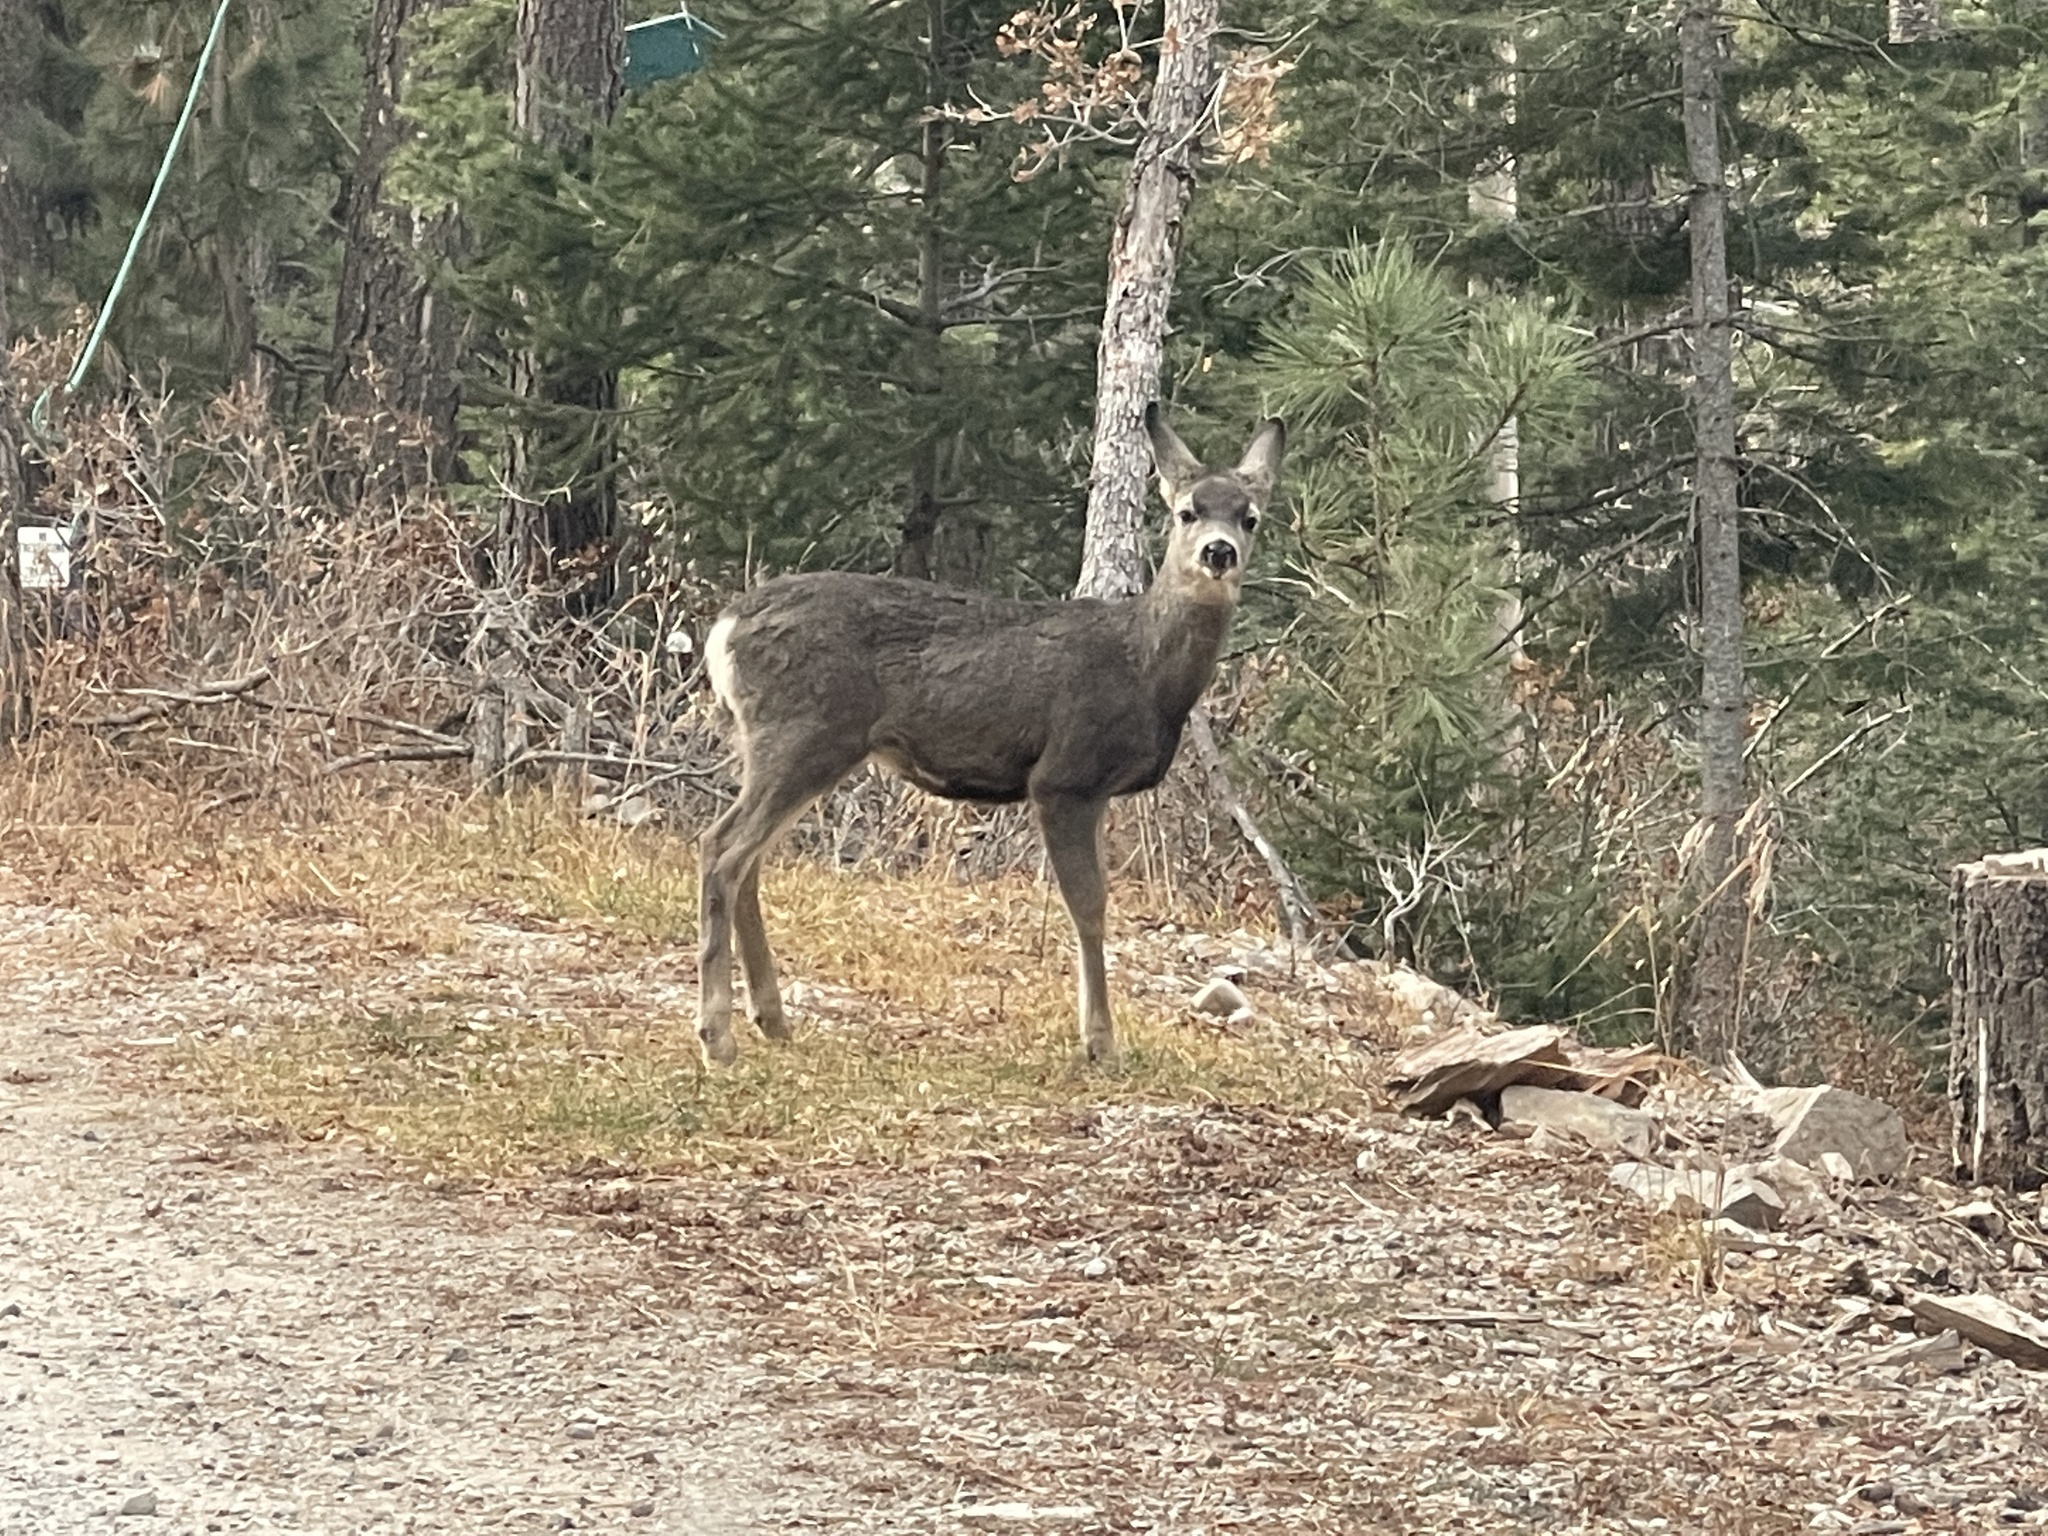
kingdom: Animalia
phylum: Chordata
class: Mammalia
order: Artiodactyla
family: Cervidae
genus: Odocoileus
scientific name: Odocoileus hemionus
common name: Mule deer
